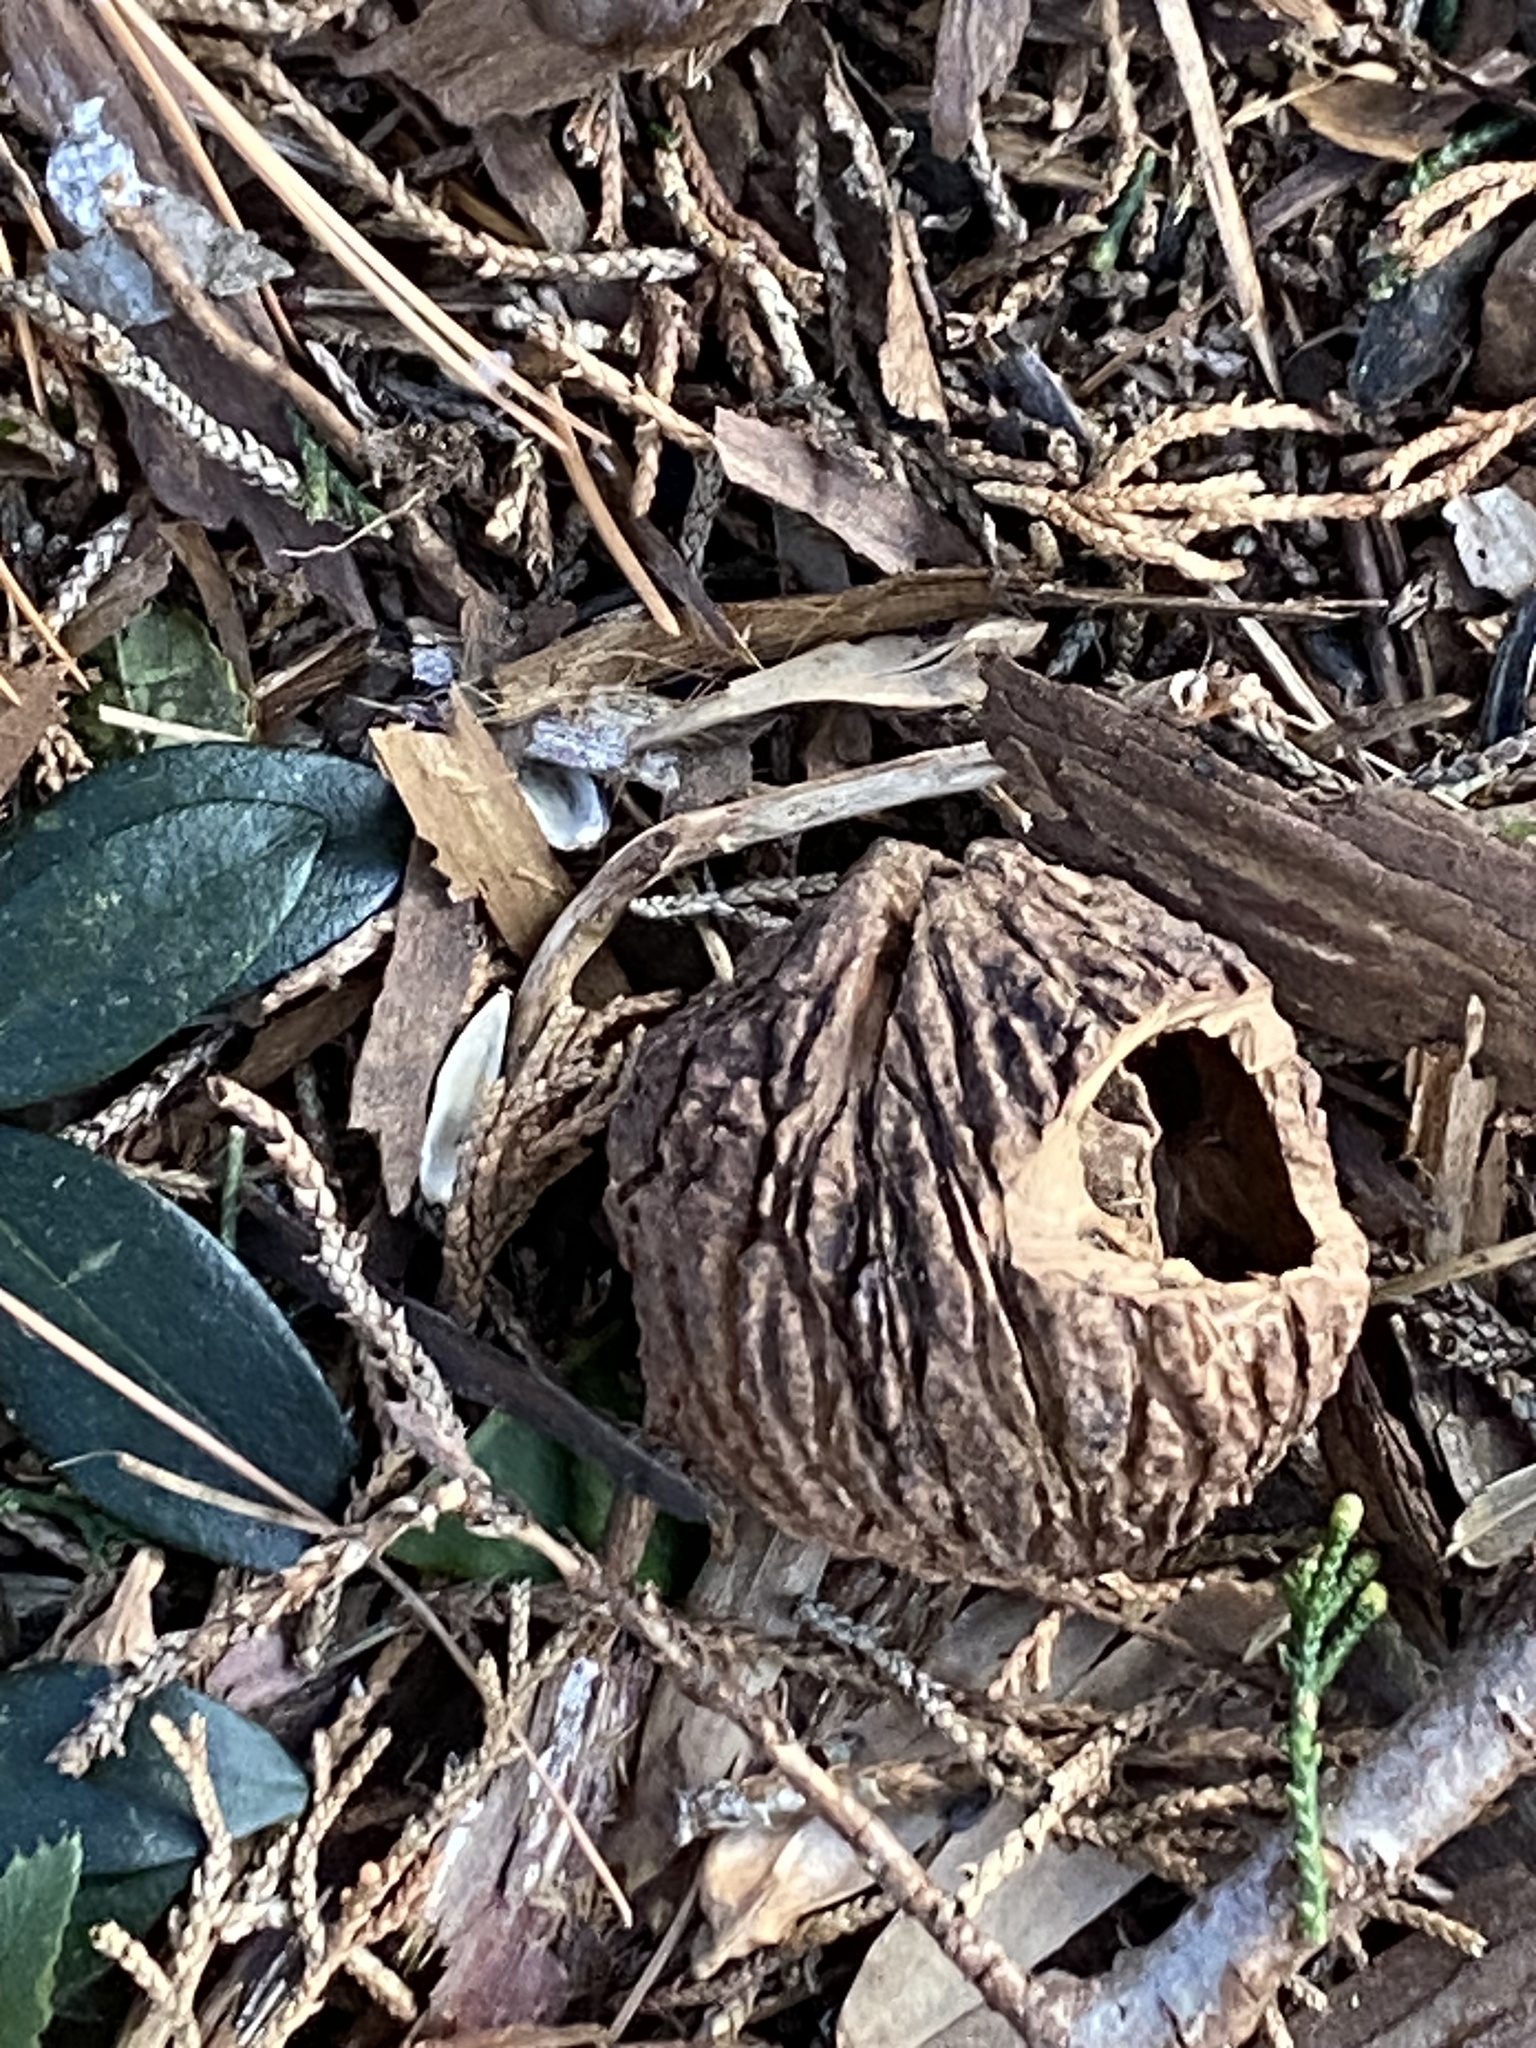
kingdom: Plantae
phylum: Tracheophyta
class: Magnoliopsida
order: Fagales
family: Juglandaceae
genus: Juglans
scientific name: Juglans nigra
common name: Black walnut
